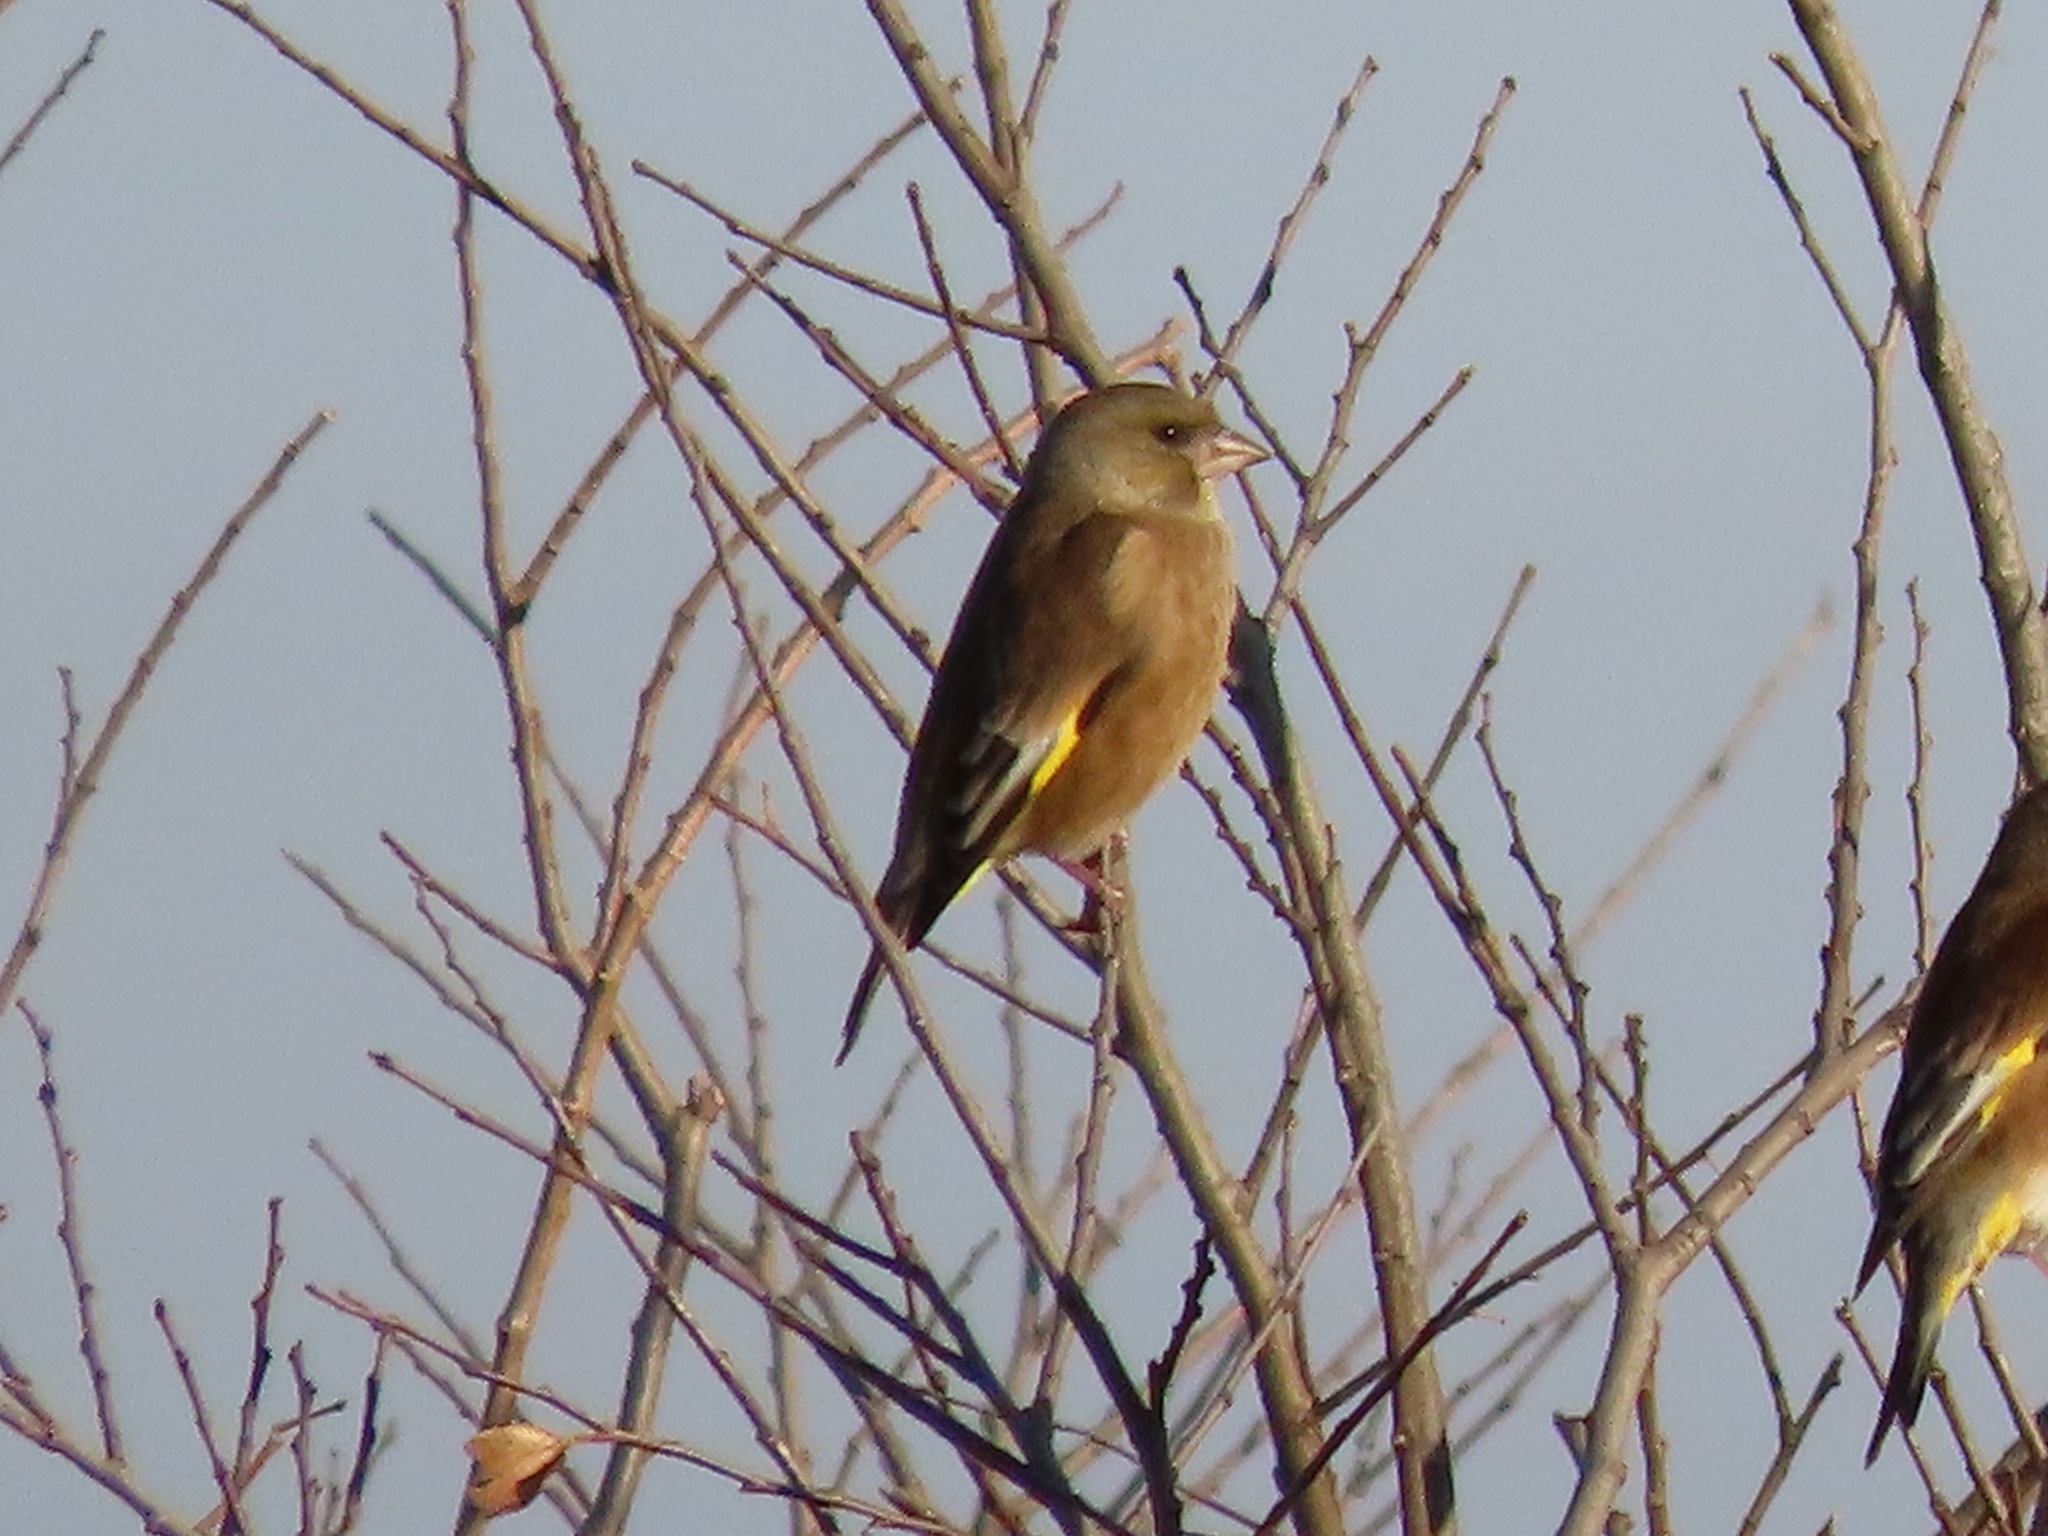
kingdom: Plantae
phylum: Tracheophyta
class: Liliopsida
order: Poales
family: Poaceae
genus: Chloris
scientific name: Chloris sinica
